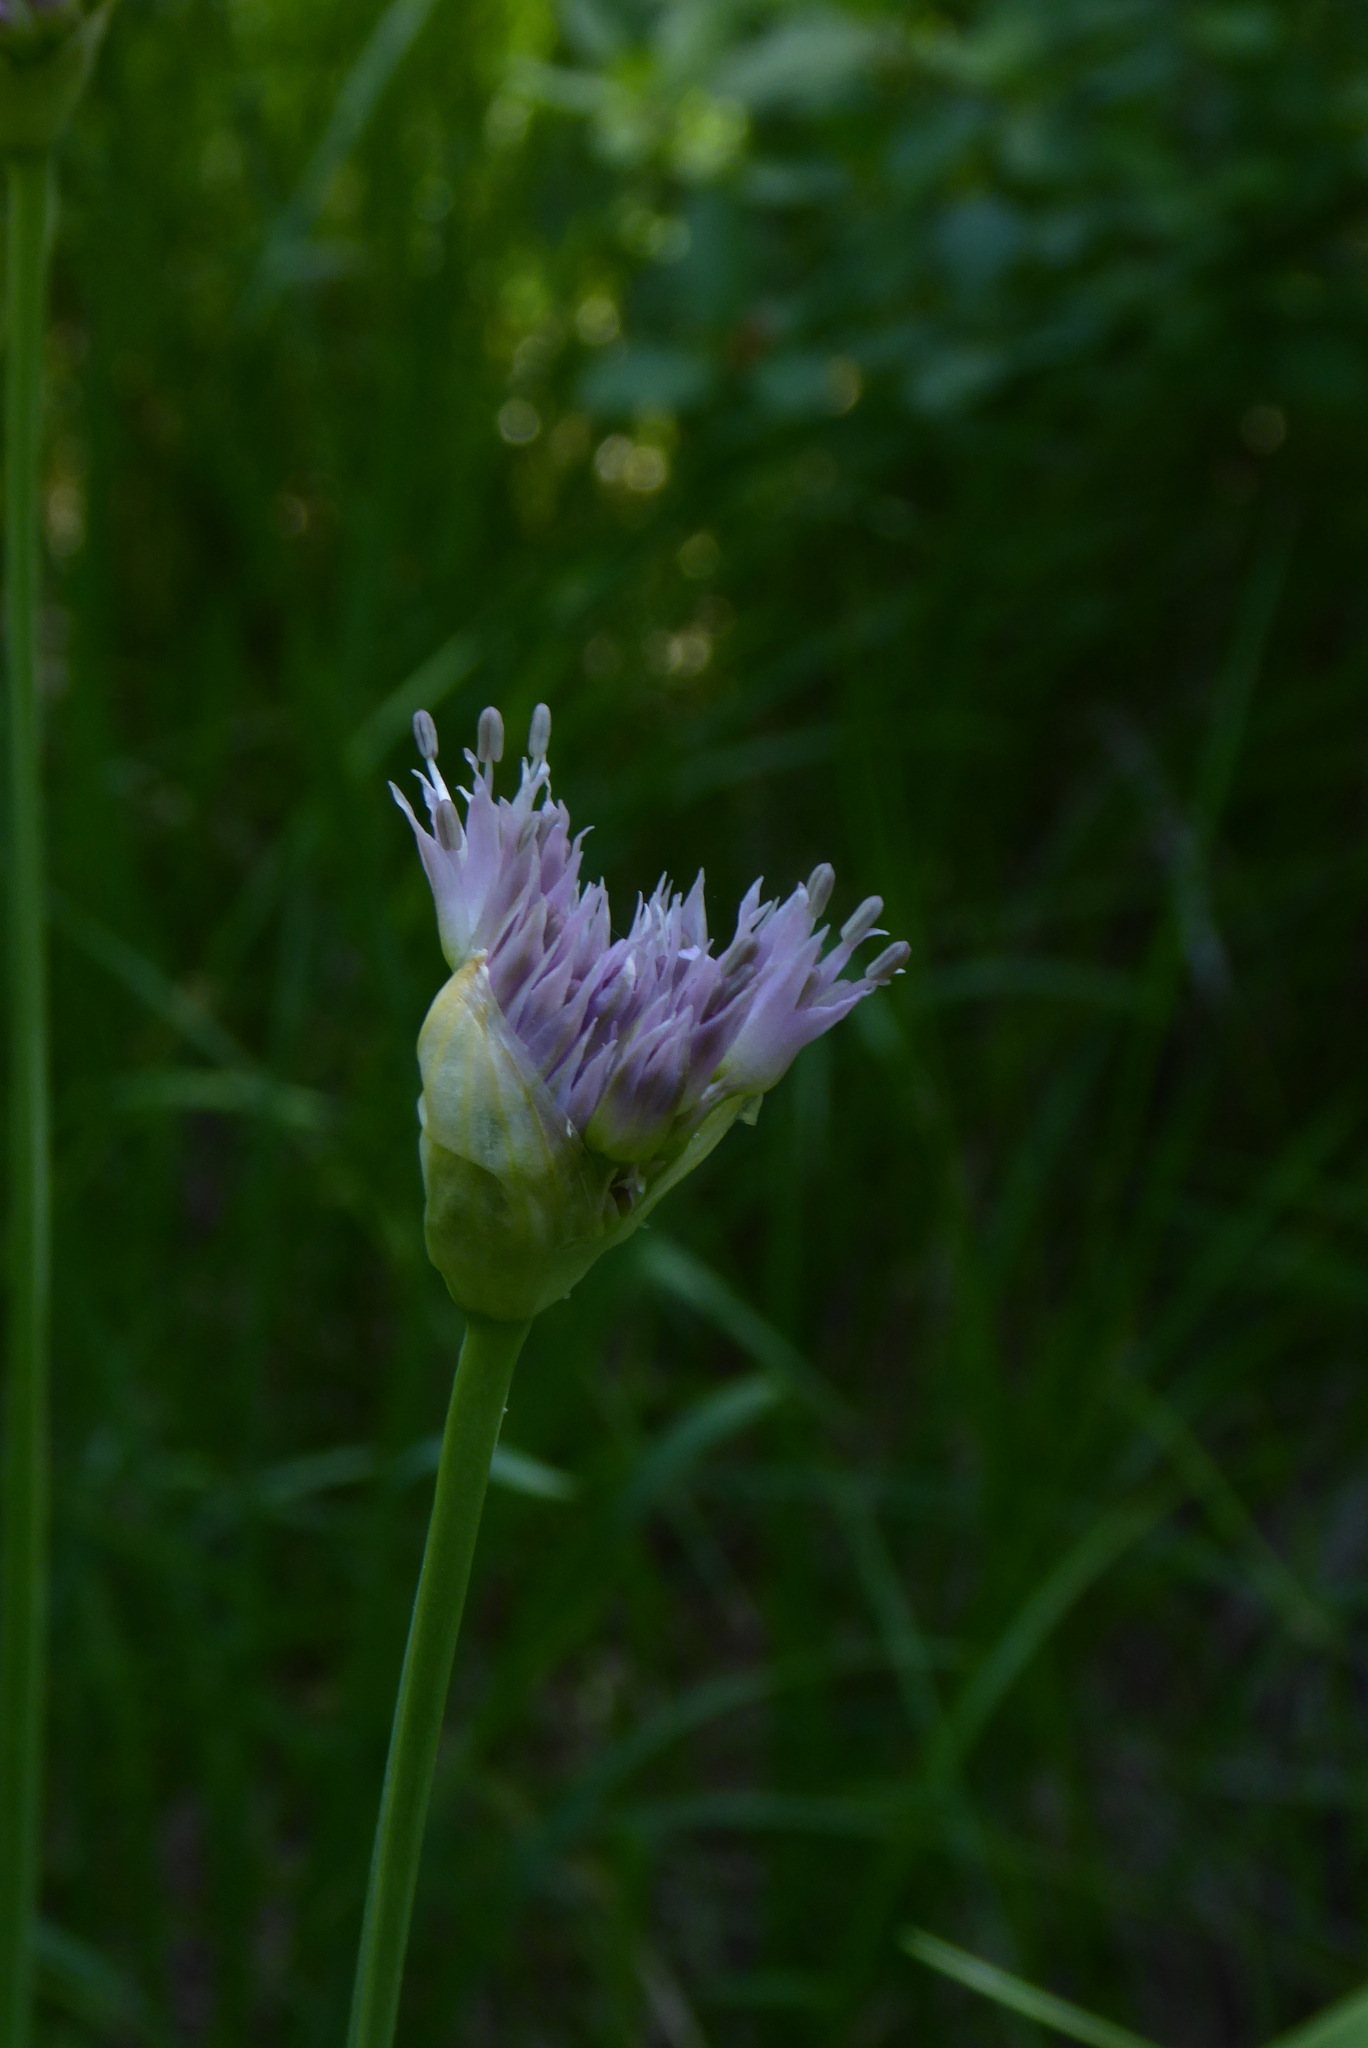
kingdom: Plantae
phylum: Tracheophyta
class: Liliopsida
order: Asparagales
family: Amaryllidaceae
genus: Allium
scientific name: Allium validum
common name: Pacific mountain onion
